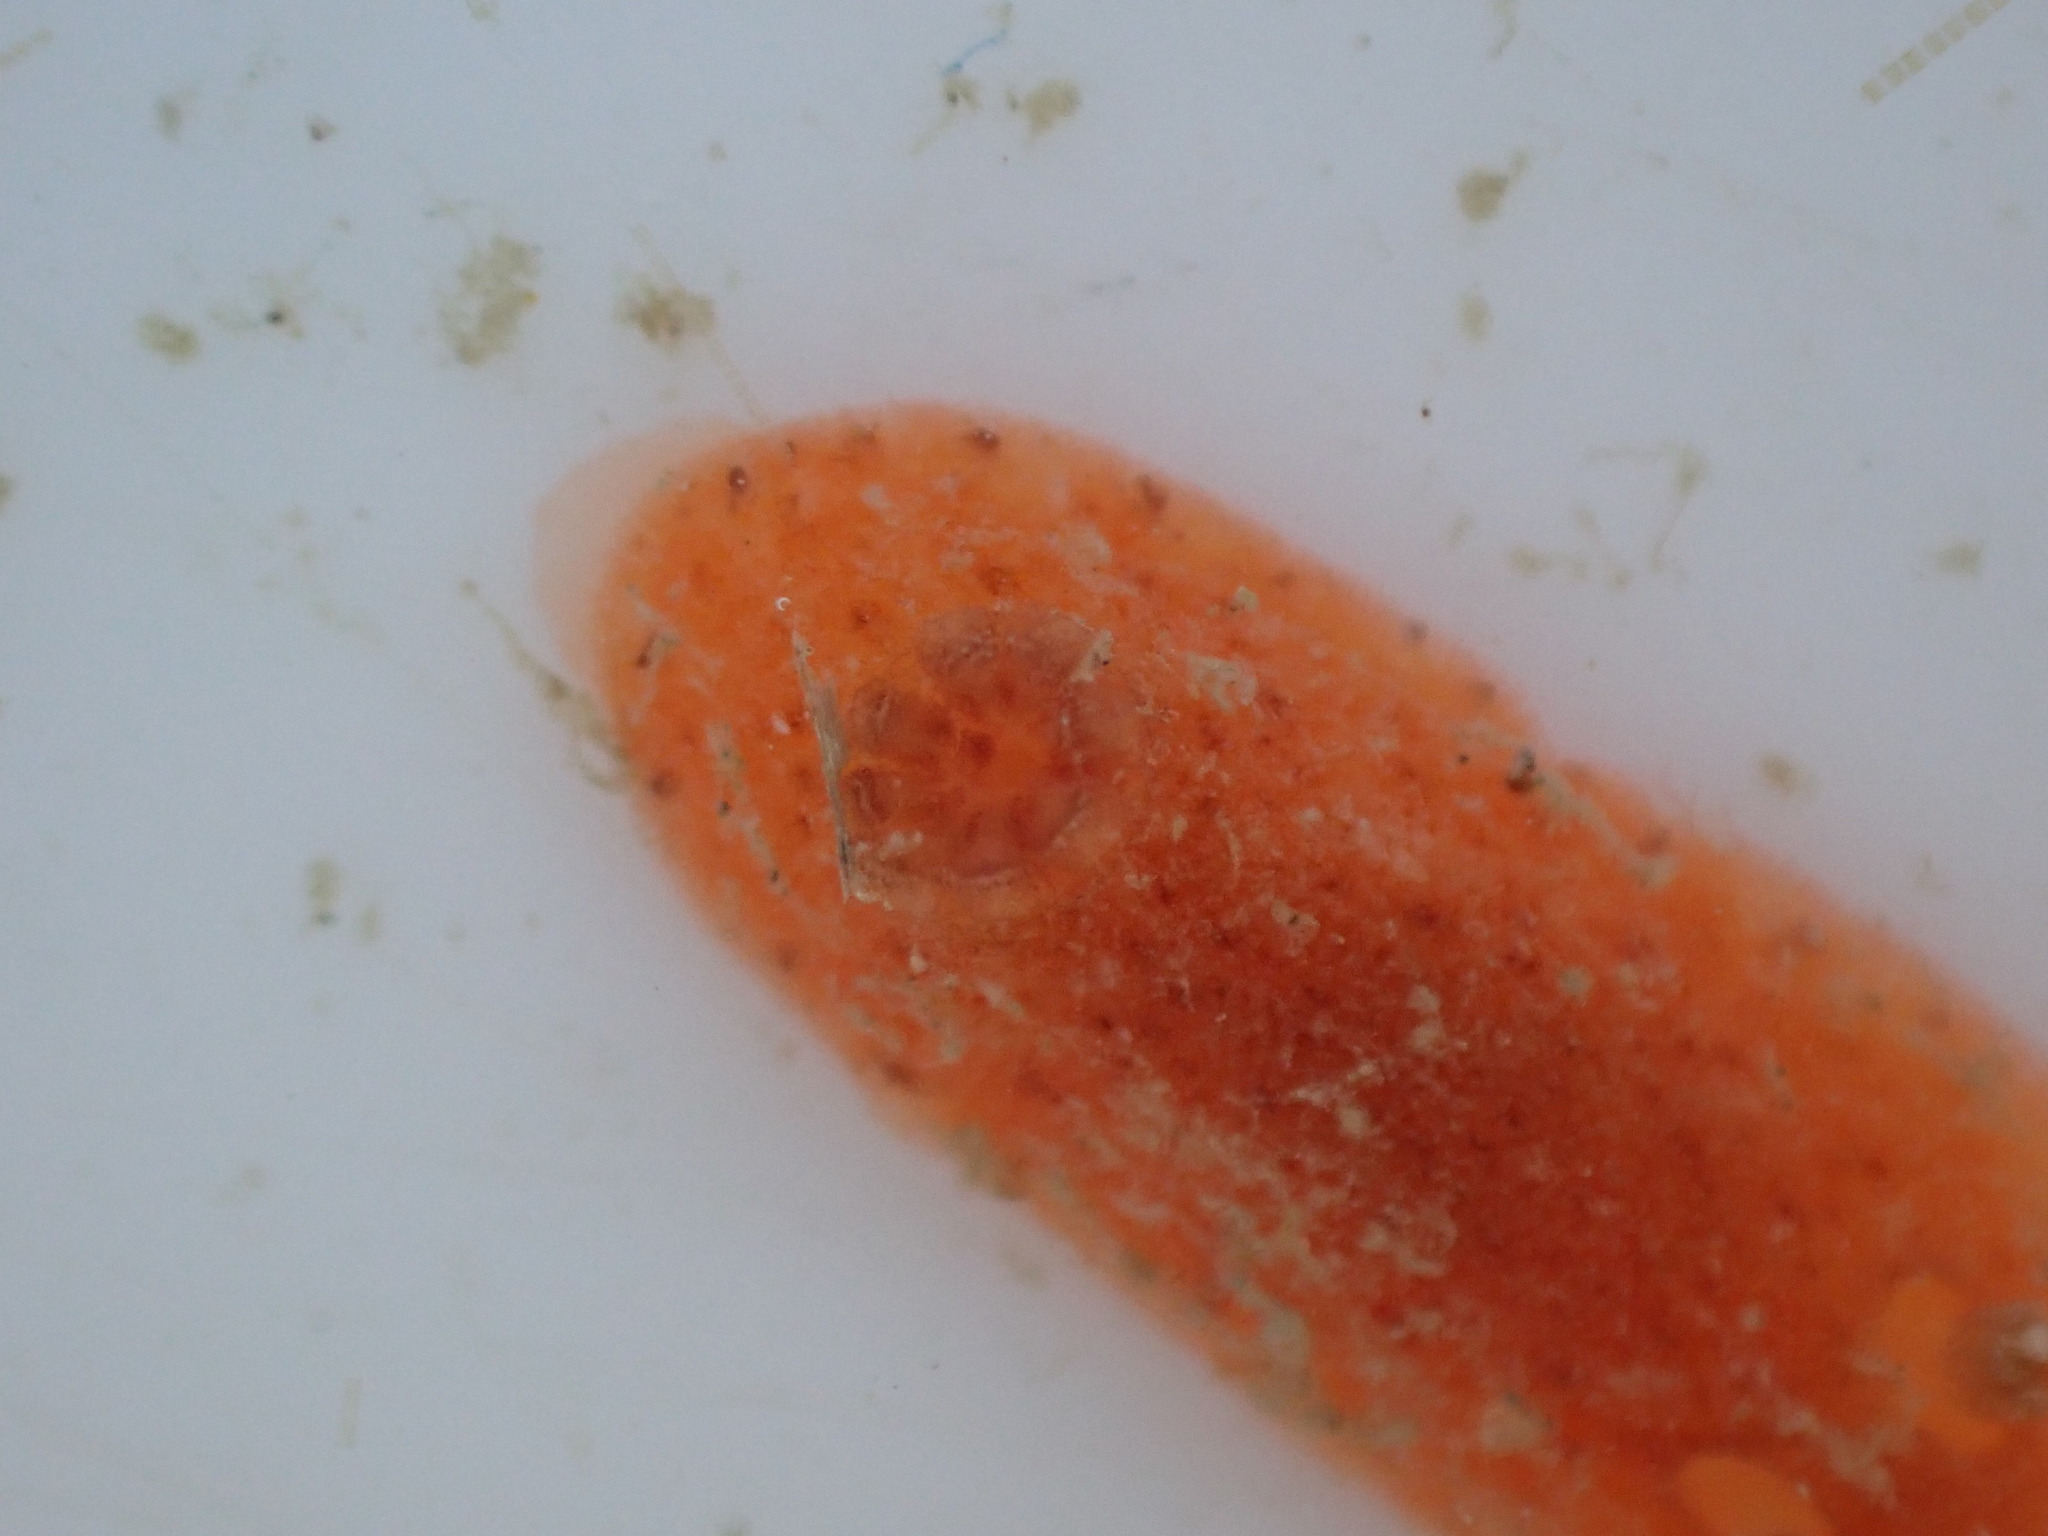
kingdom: Animalia
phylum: Mollusca
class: Gastropoda
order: Nudibranchia
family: Discodorididae
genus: Rostanga
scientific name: Rostanga muscula
